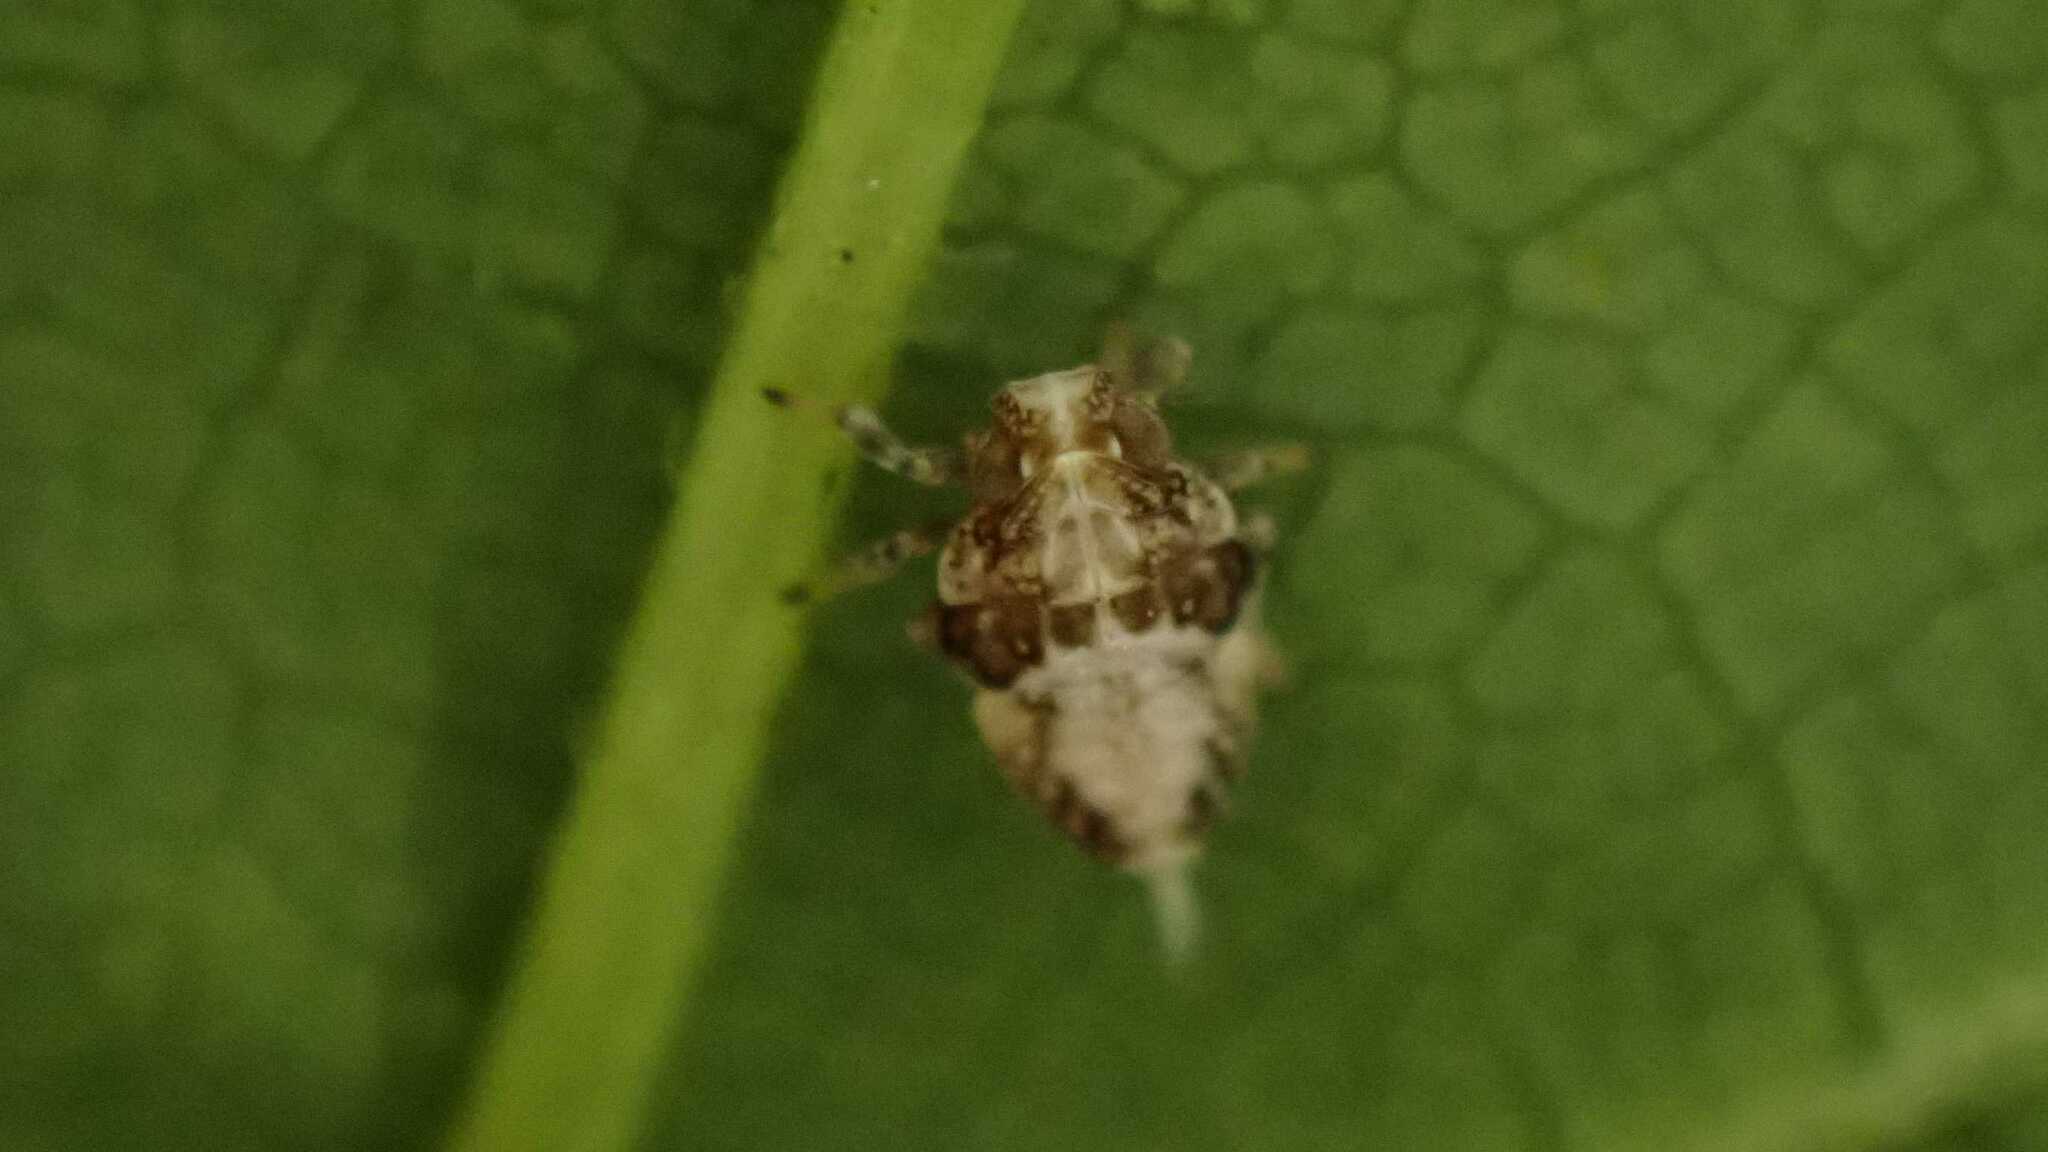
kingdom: Animalia
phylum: Arthropoda
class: Insecta
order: Hemiptera
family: Issidae
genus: Issus
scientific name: Issus
